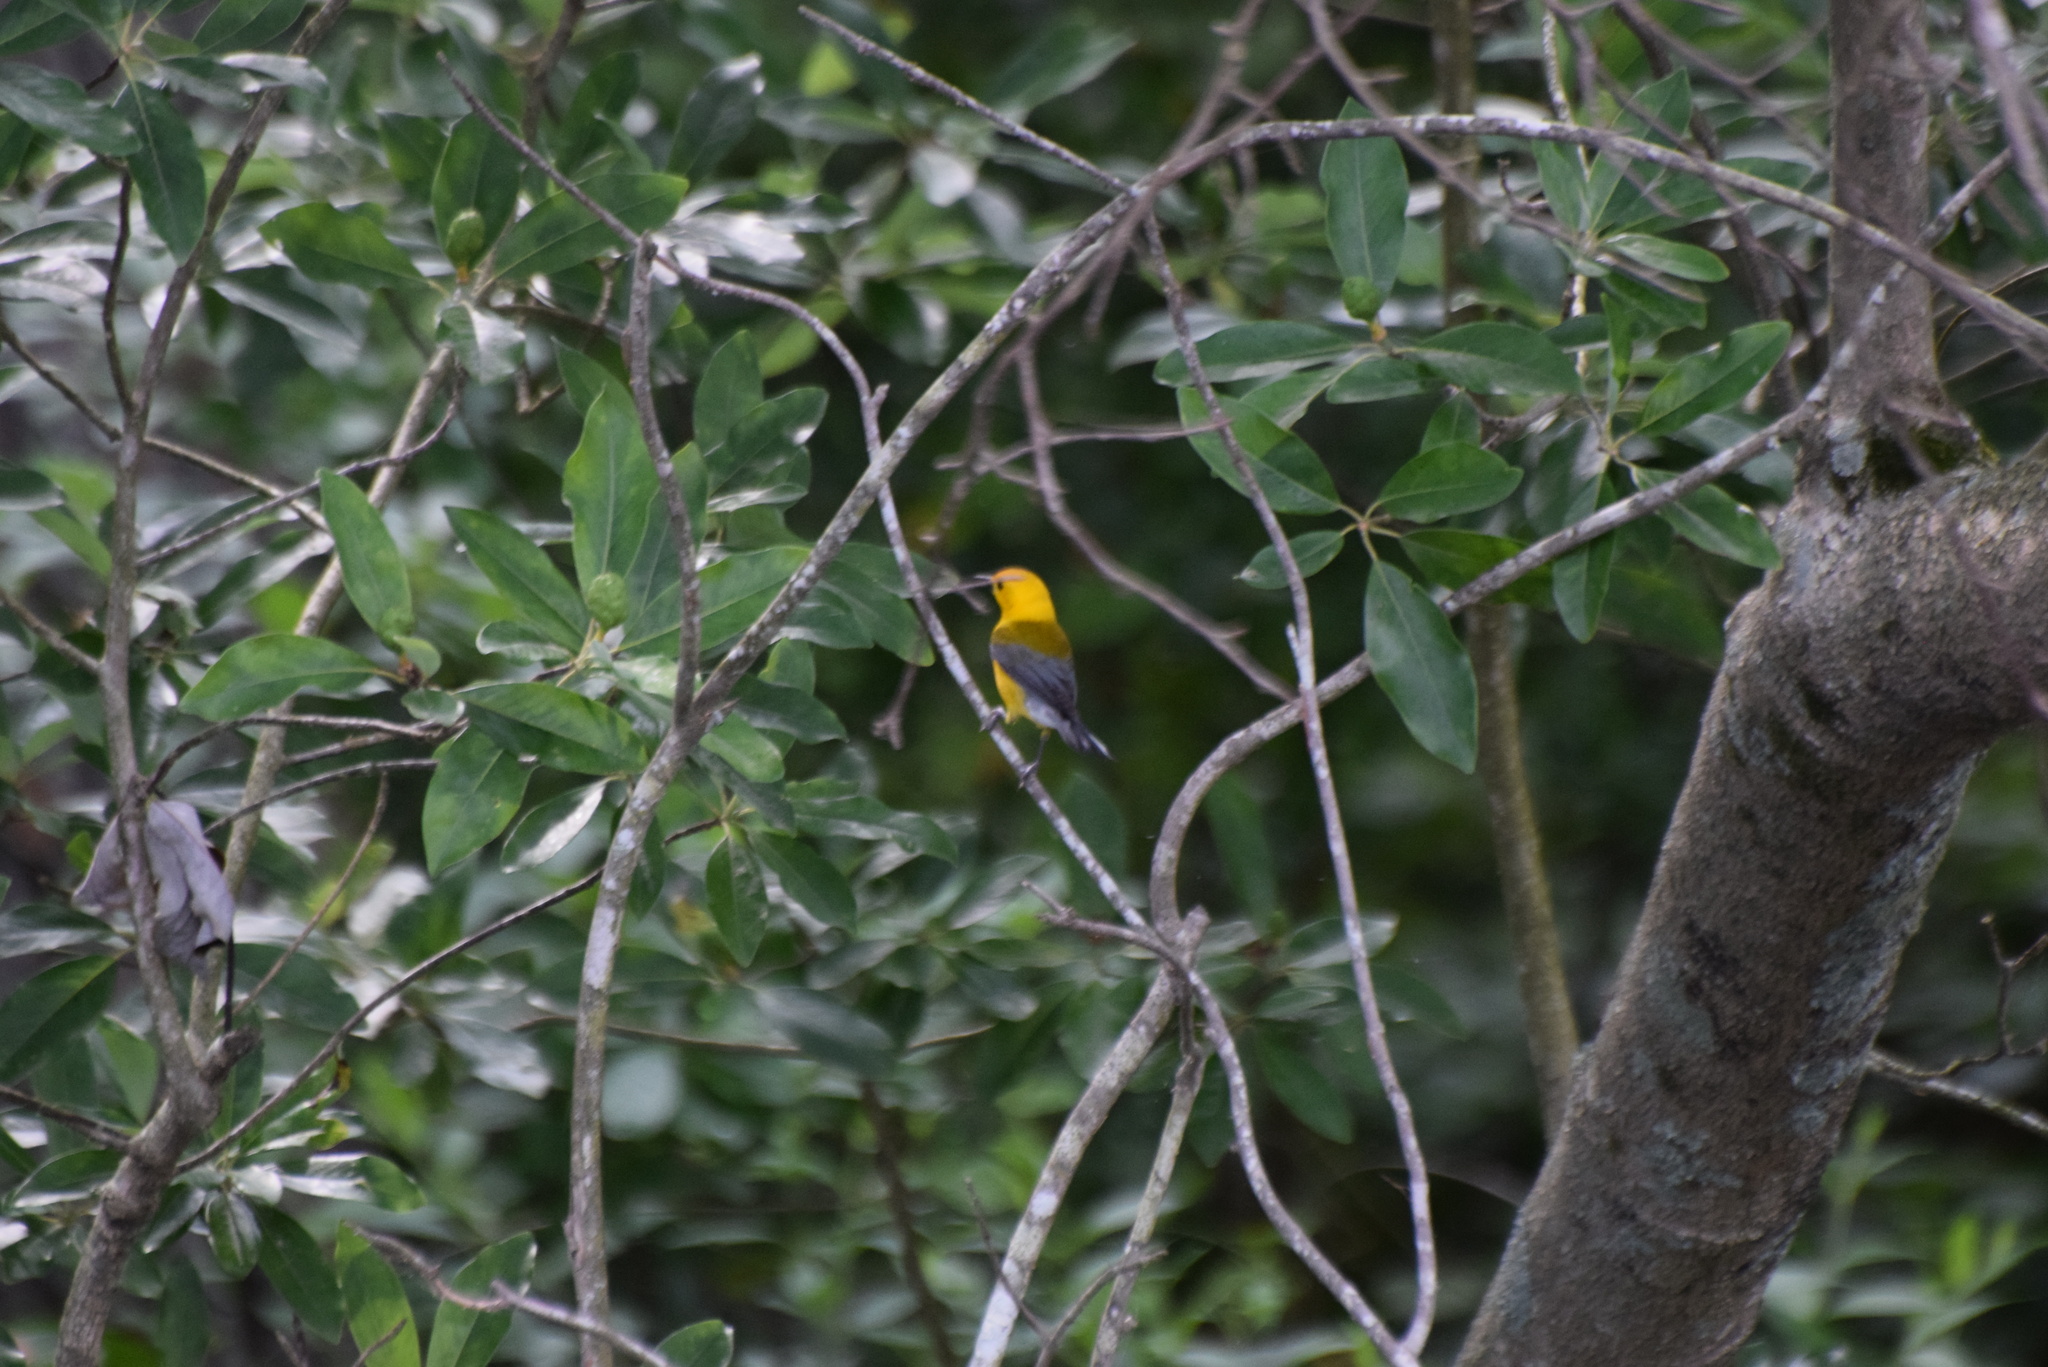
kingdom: Animalia
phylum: Chordata
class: Aves
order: Passeriformes
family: Parulidae
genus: Protonotaria
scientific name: Protonotaria citrea
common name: Prothonotary warbler
